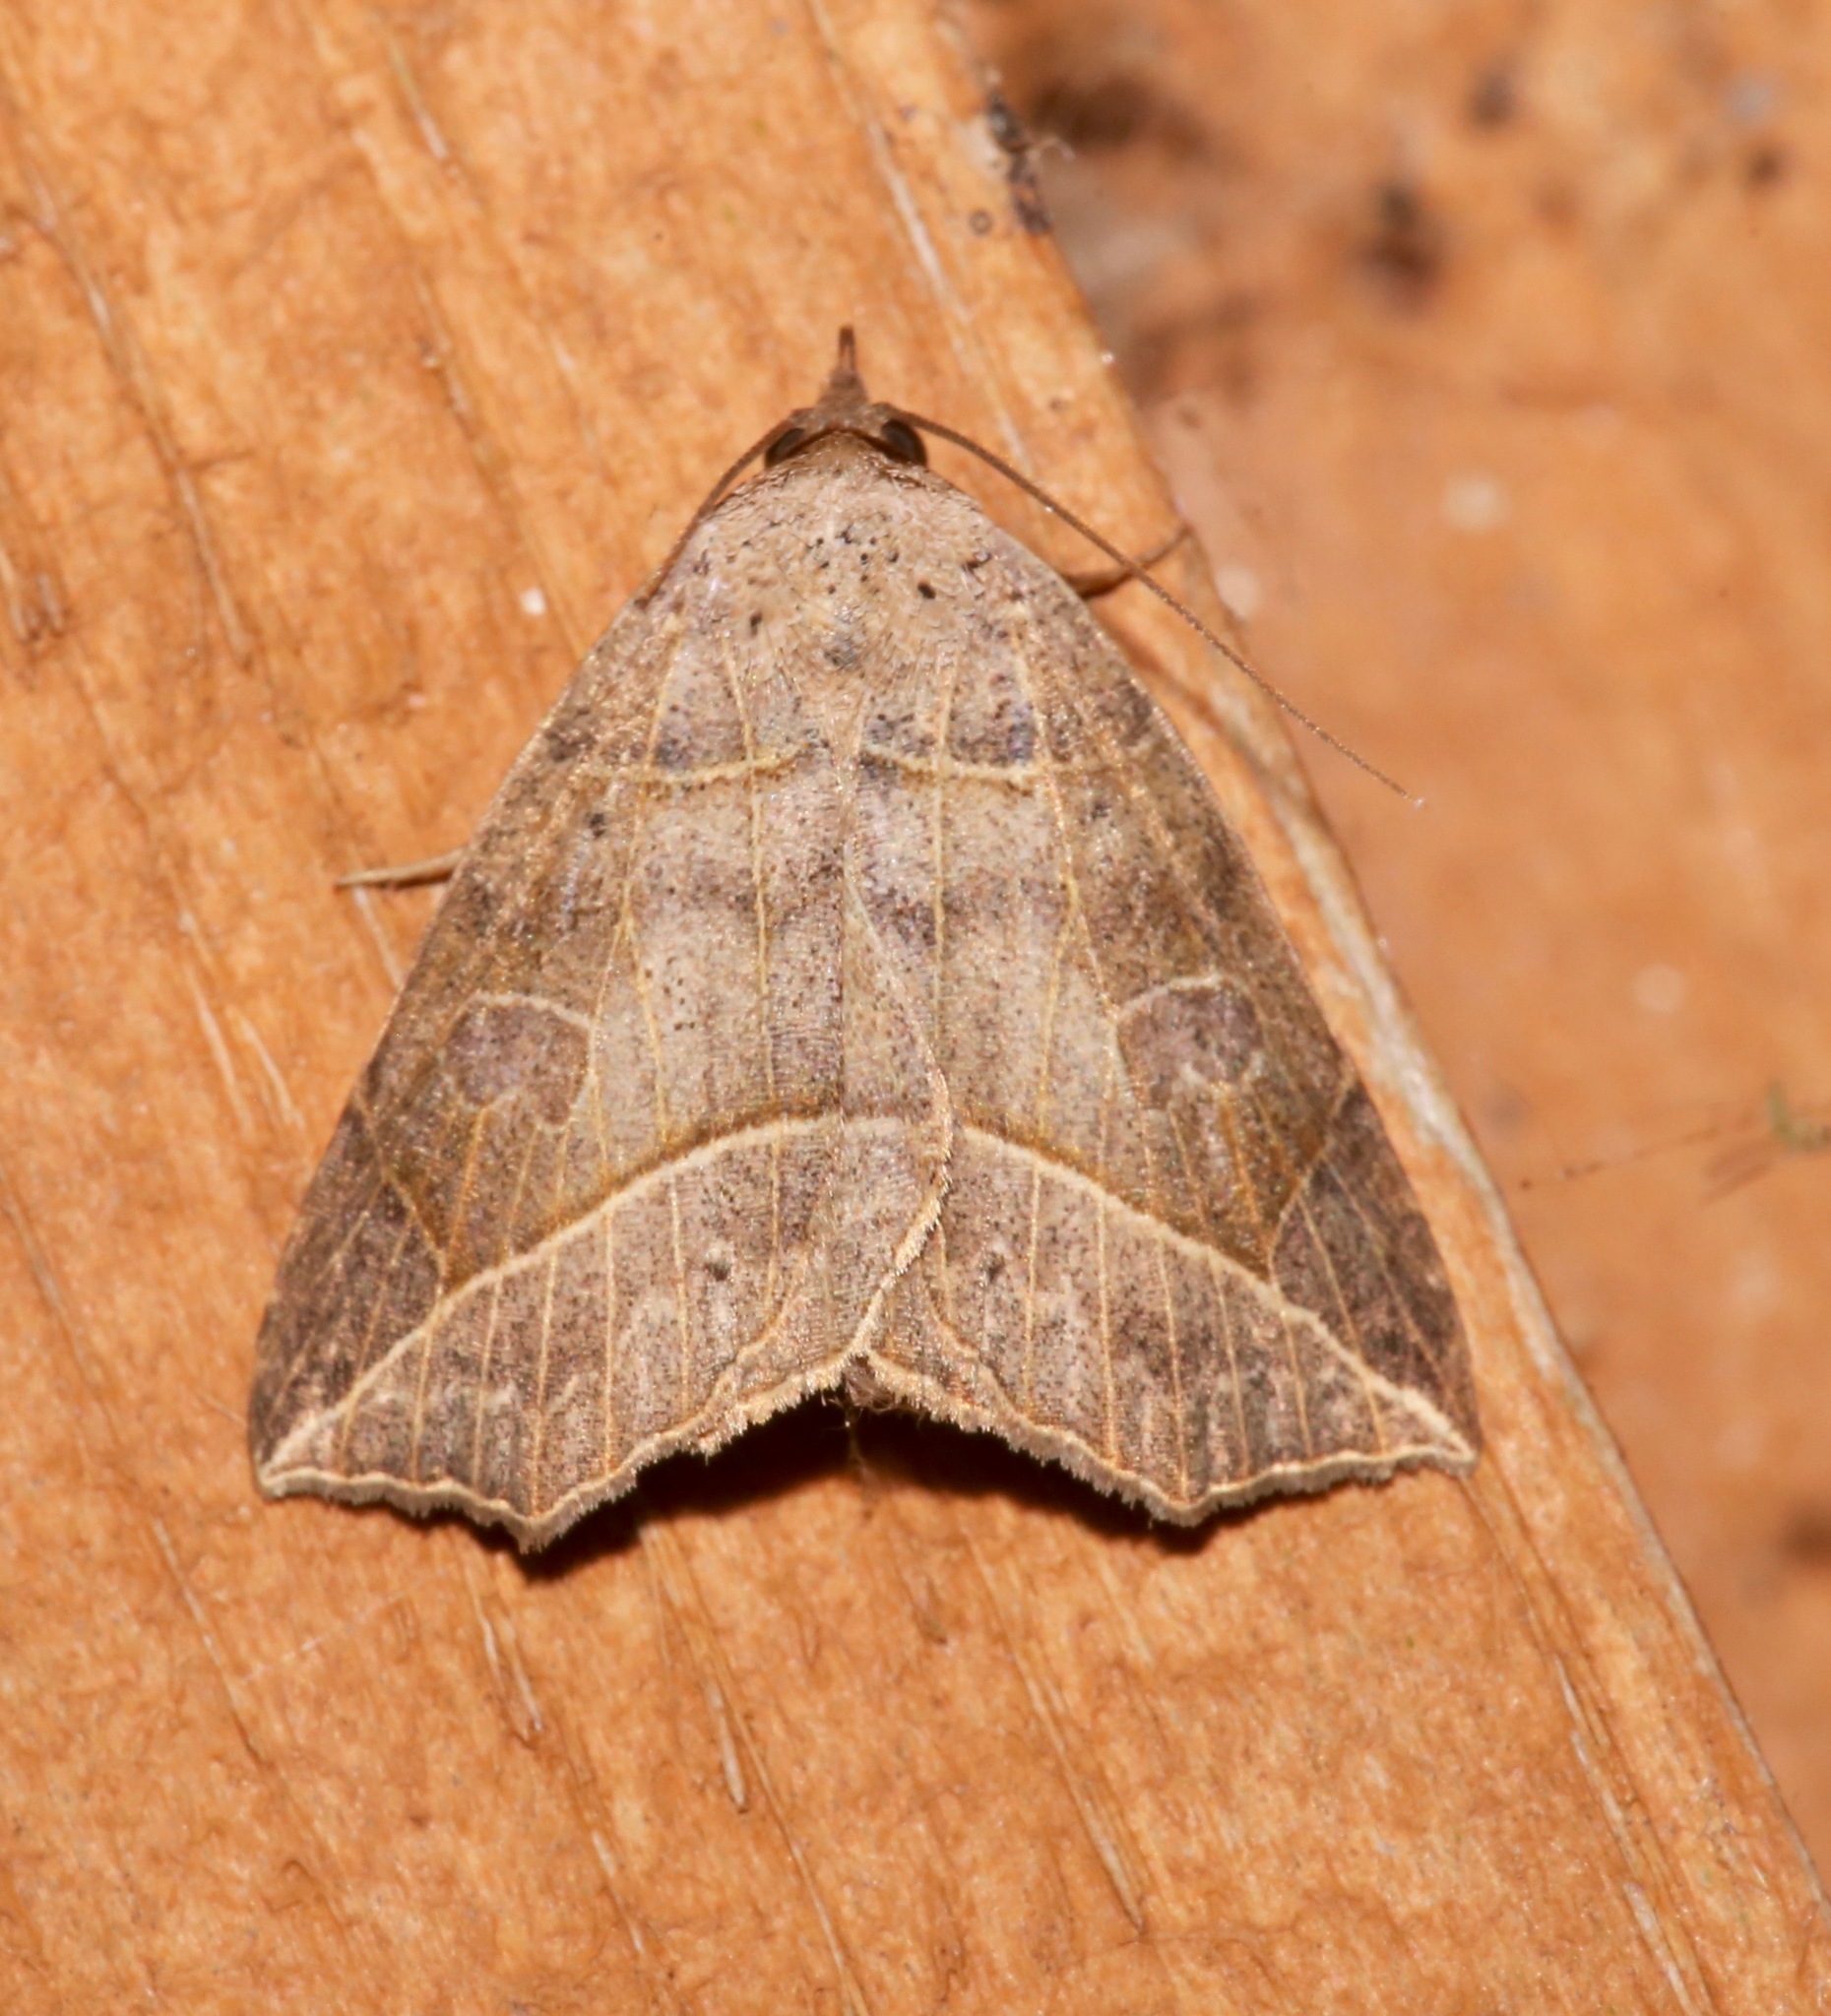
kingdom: Animalia
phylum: Arthropoda
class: Insecta
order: Lepidoptera
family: Erebidae
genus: Isogona
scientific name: Isogona tenuis
